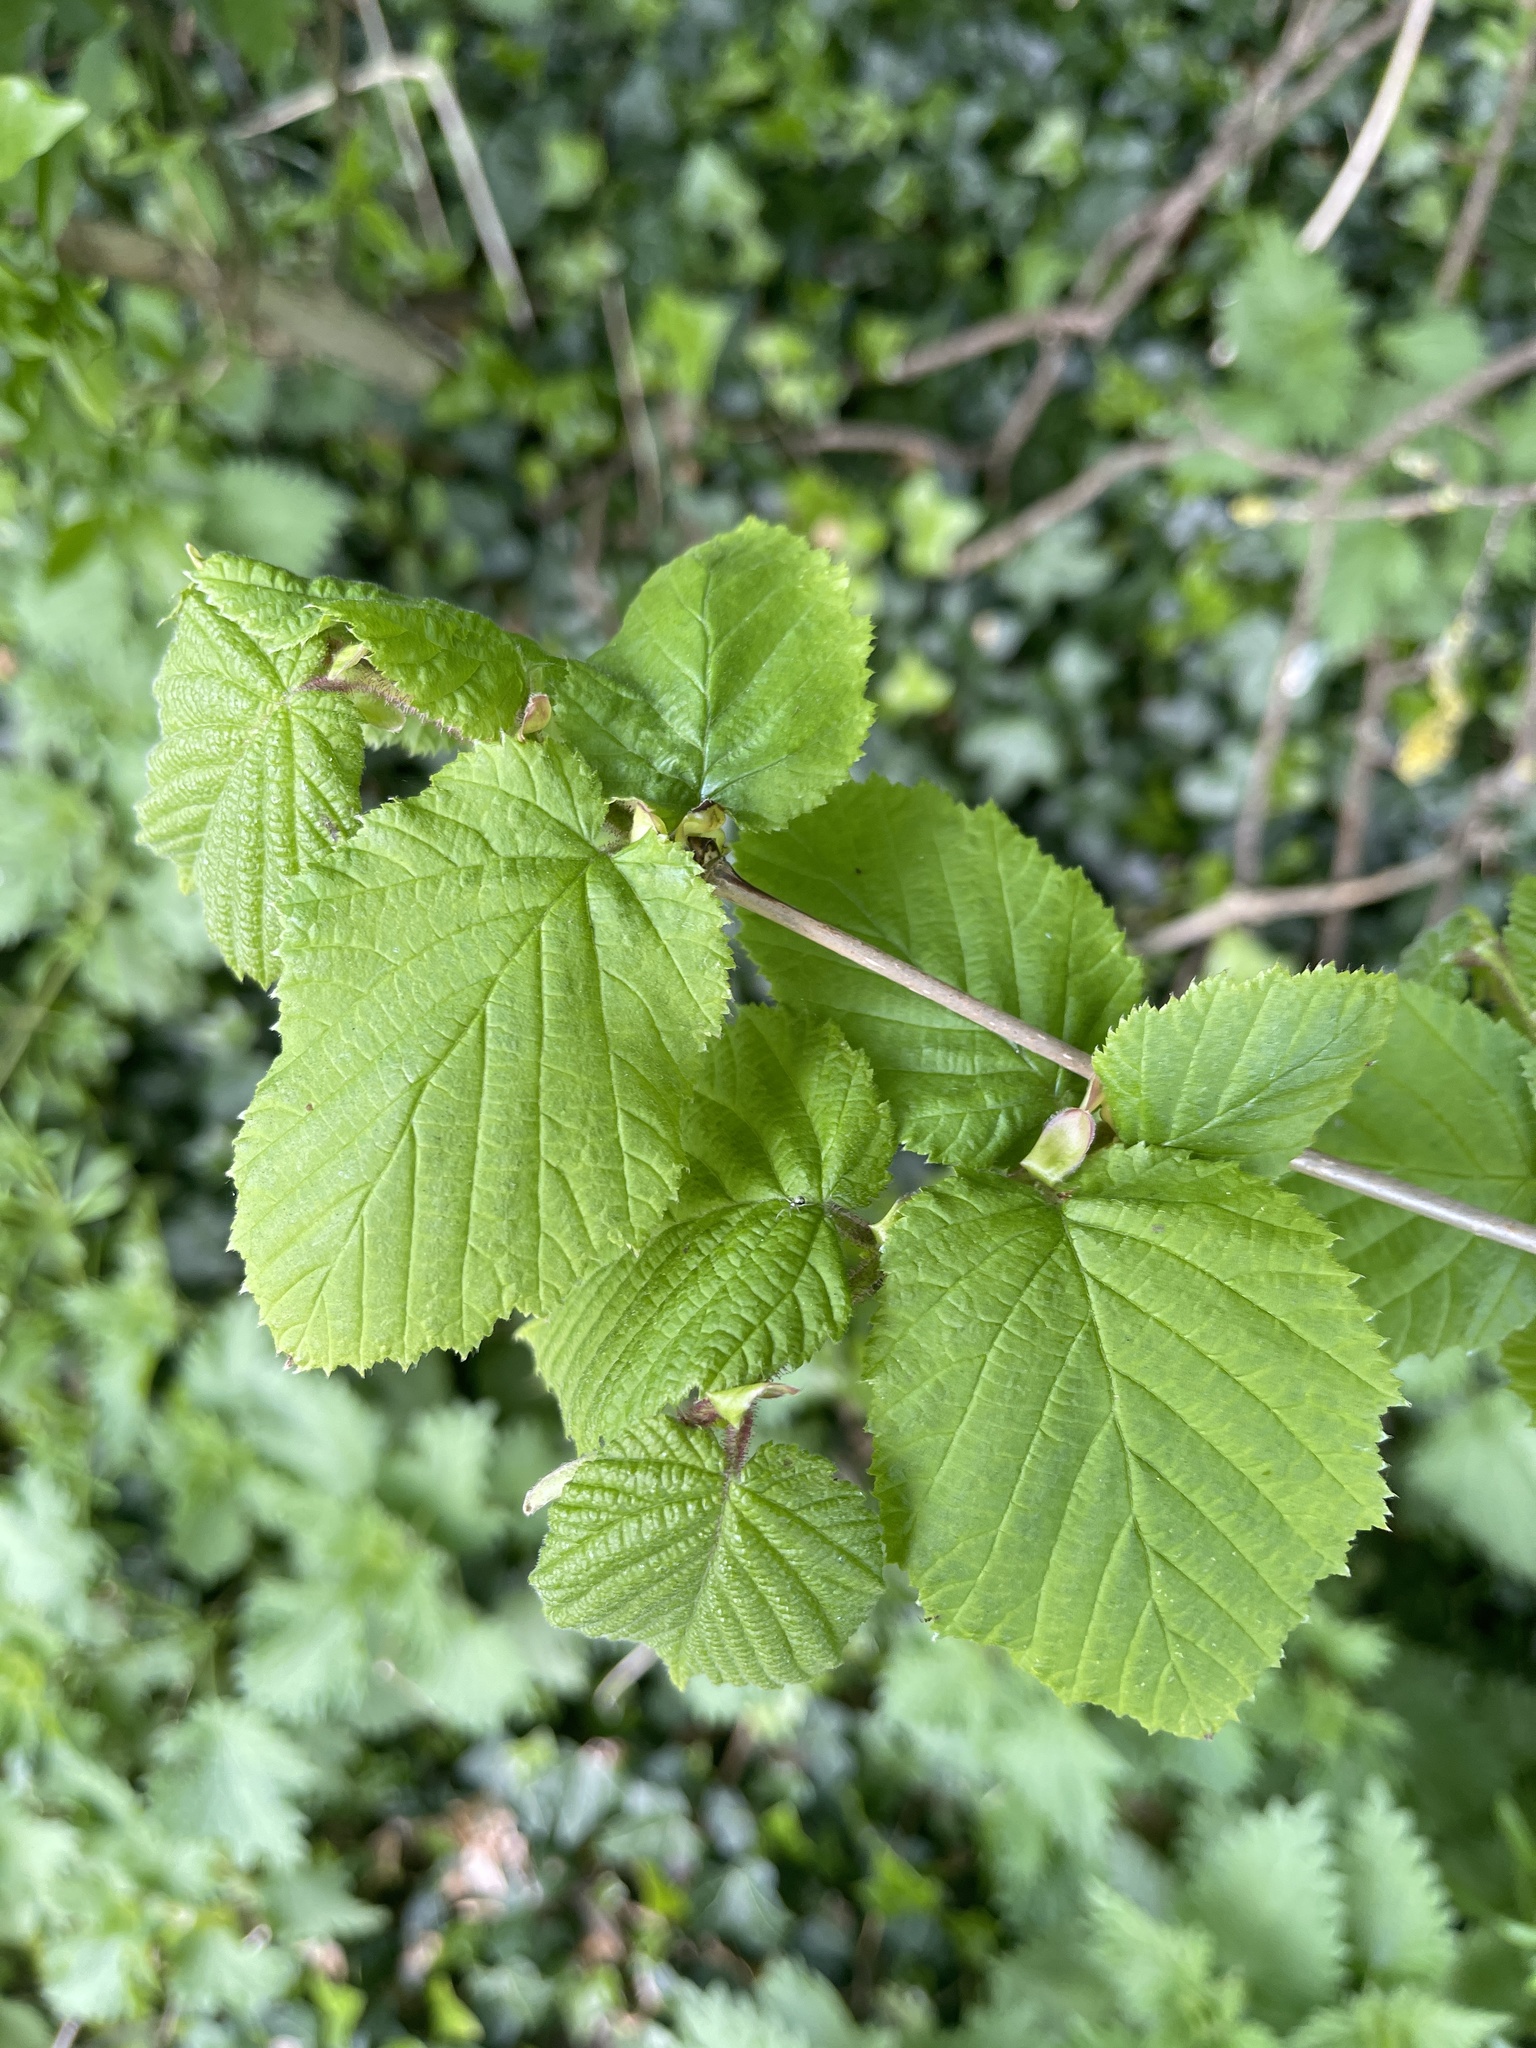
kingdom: Plantae
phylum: Tracheophyta
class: Magnoliopsida
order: Fagales
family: Betulaceae
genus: Corylus
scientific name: Corylus avellana
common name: European hazel
